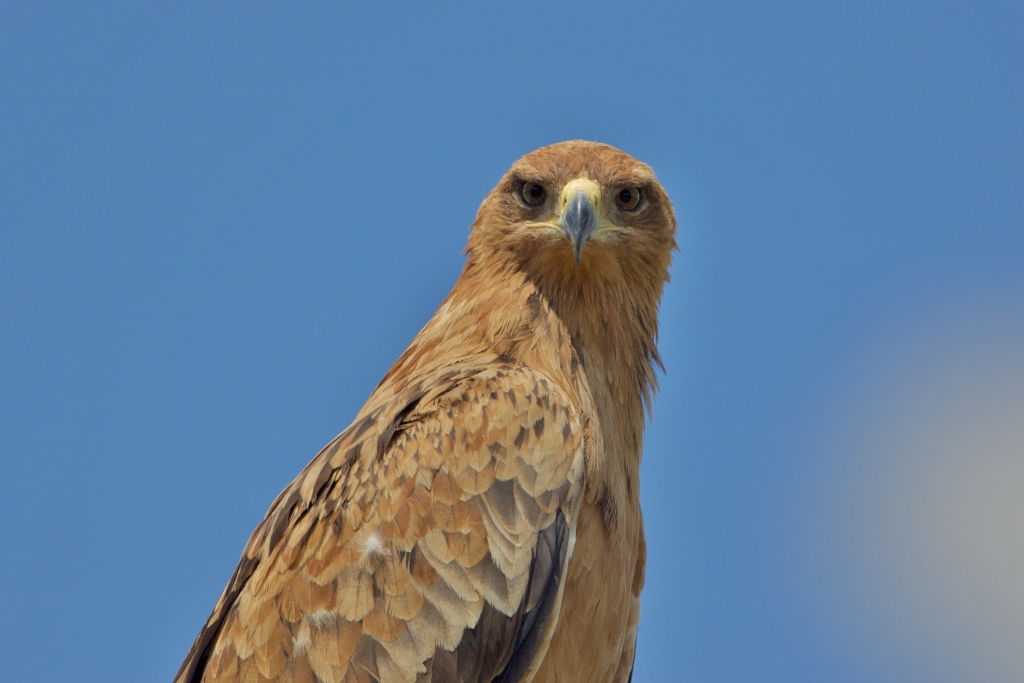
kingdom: Animalia
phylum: Chordata
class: Aves
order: Accipitriformes
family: Accipitridae
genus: Aquila
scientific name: Aquila rapax
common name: Tawny eagle
